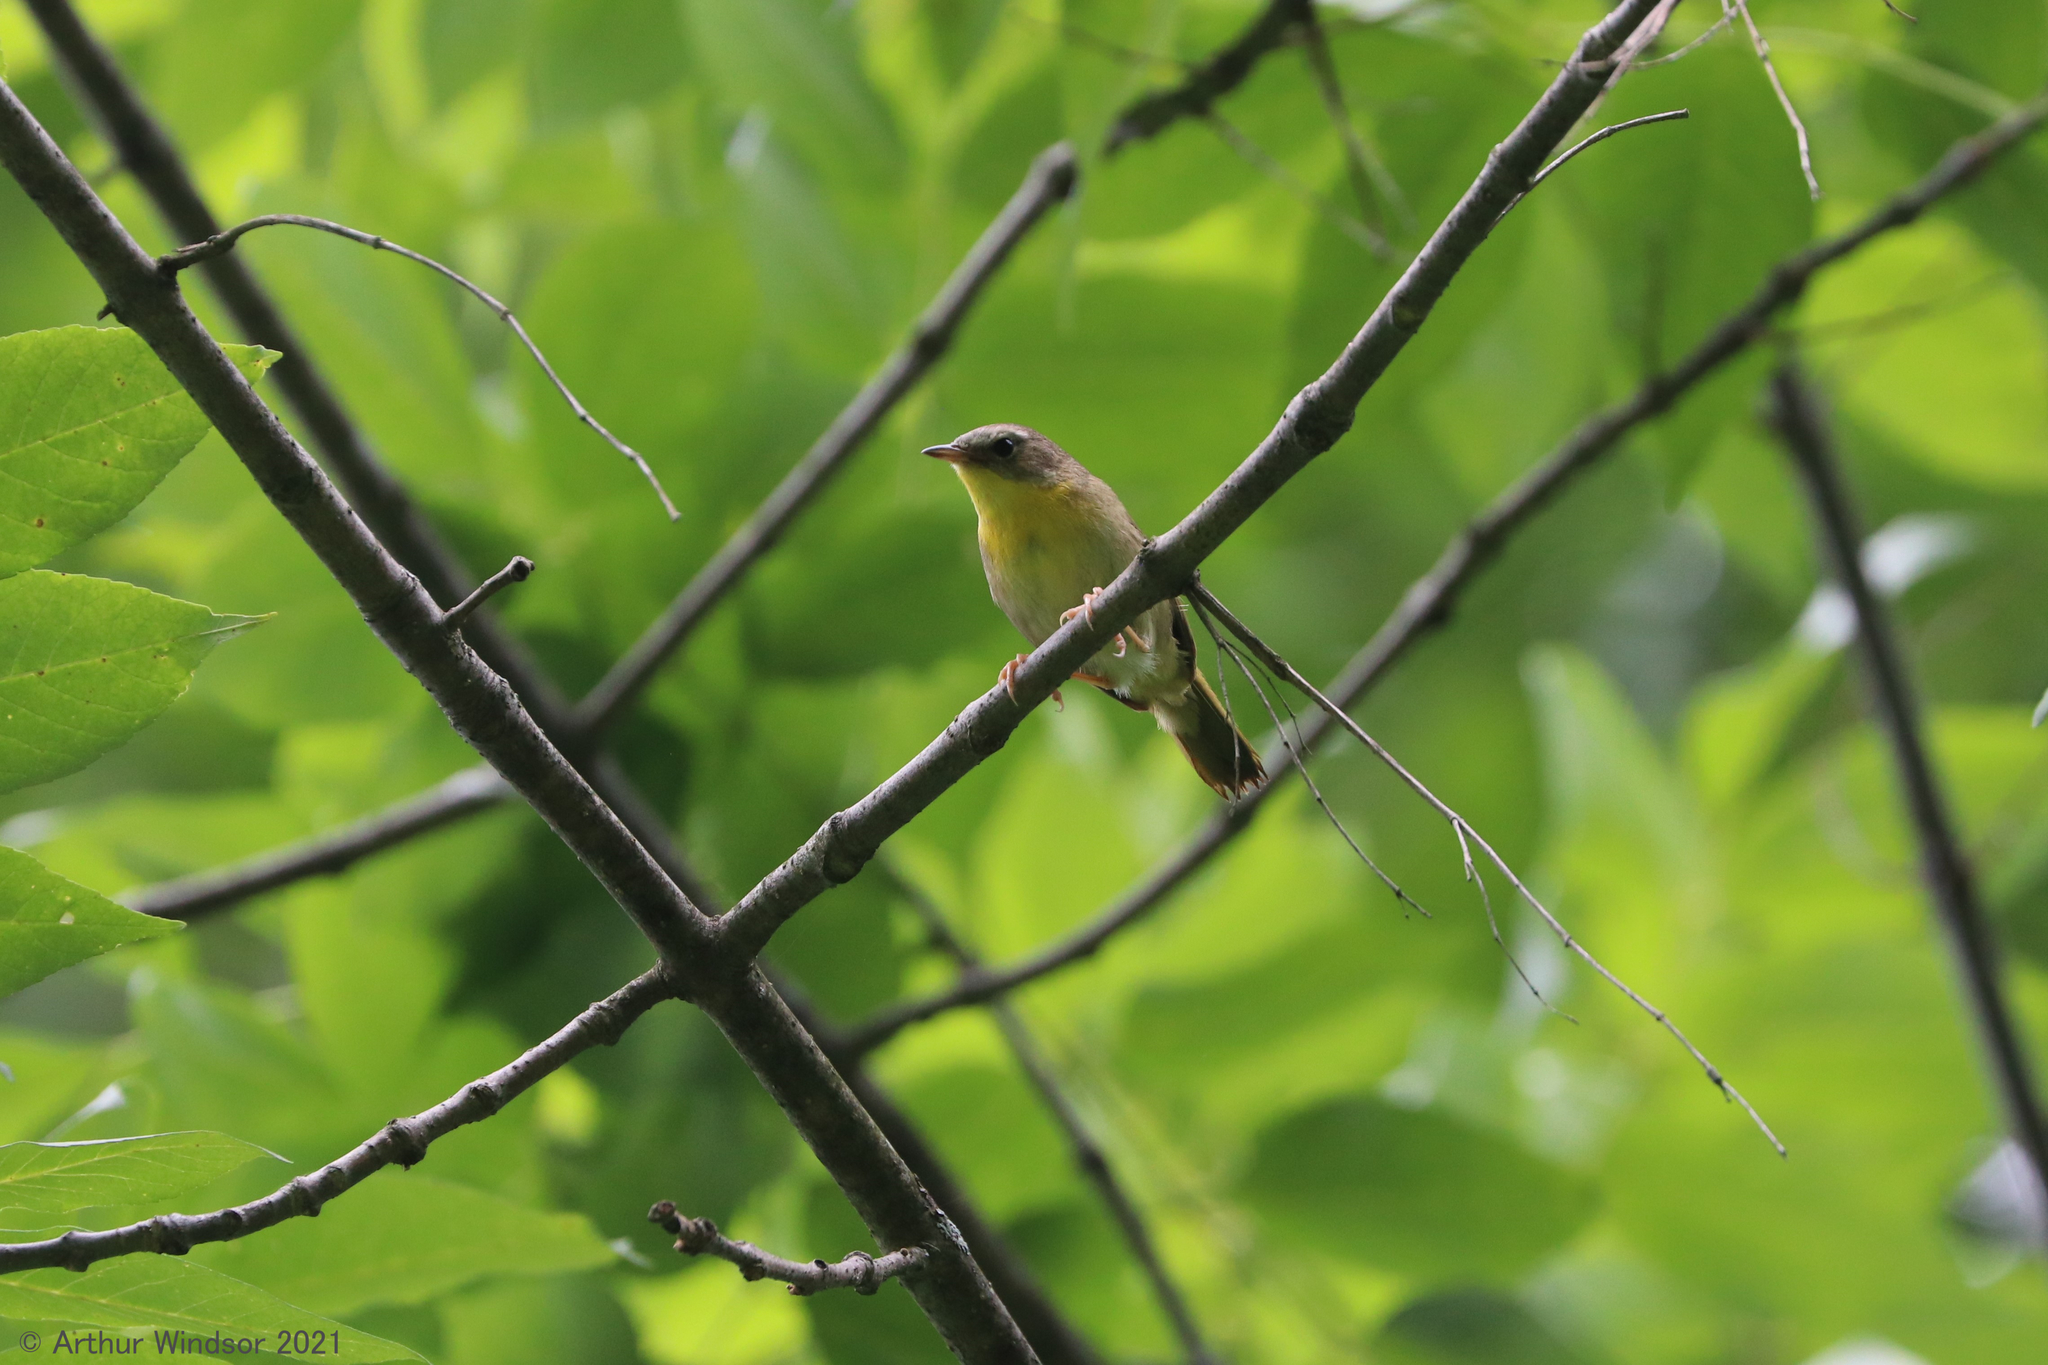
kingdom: Animalia
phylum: Chordata
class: Aves
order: Passeriformes
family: Parulidae
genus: Geothlypis
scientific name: Geothlypis trichas
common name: Common yellowthroat
